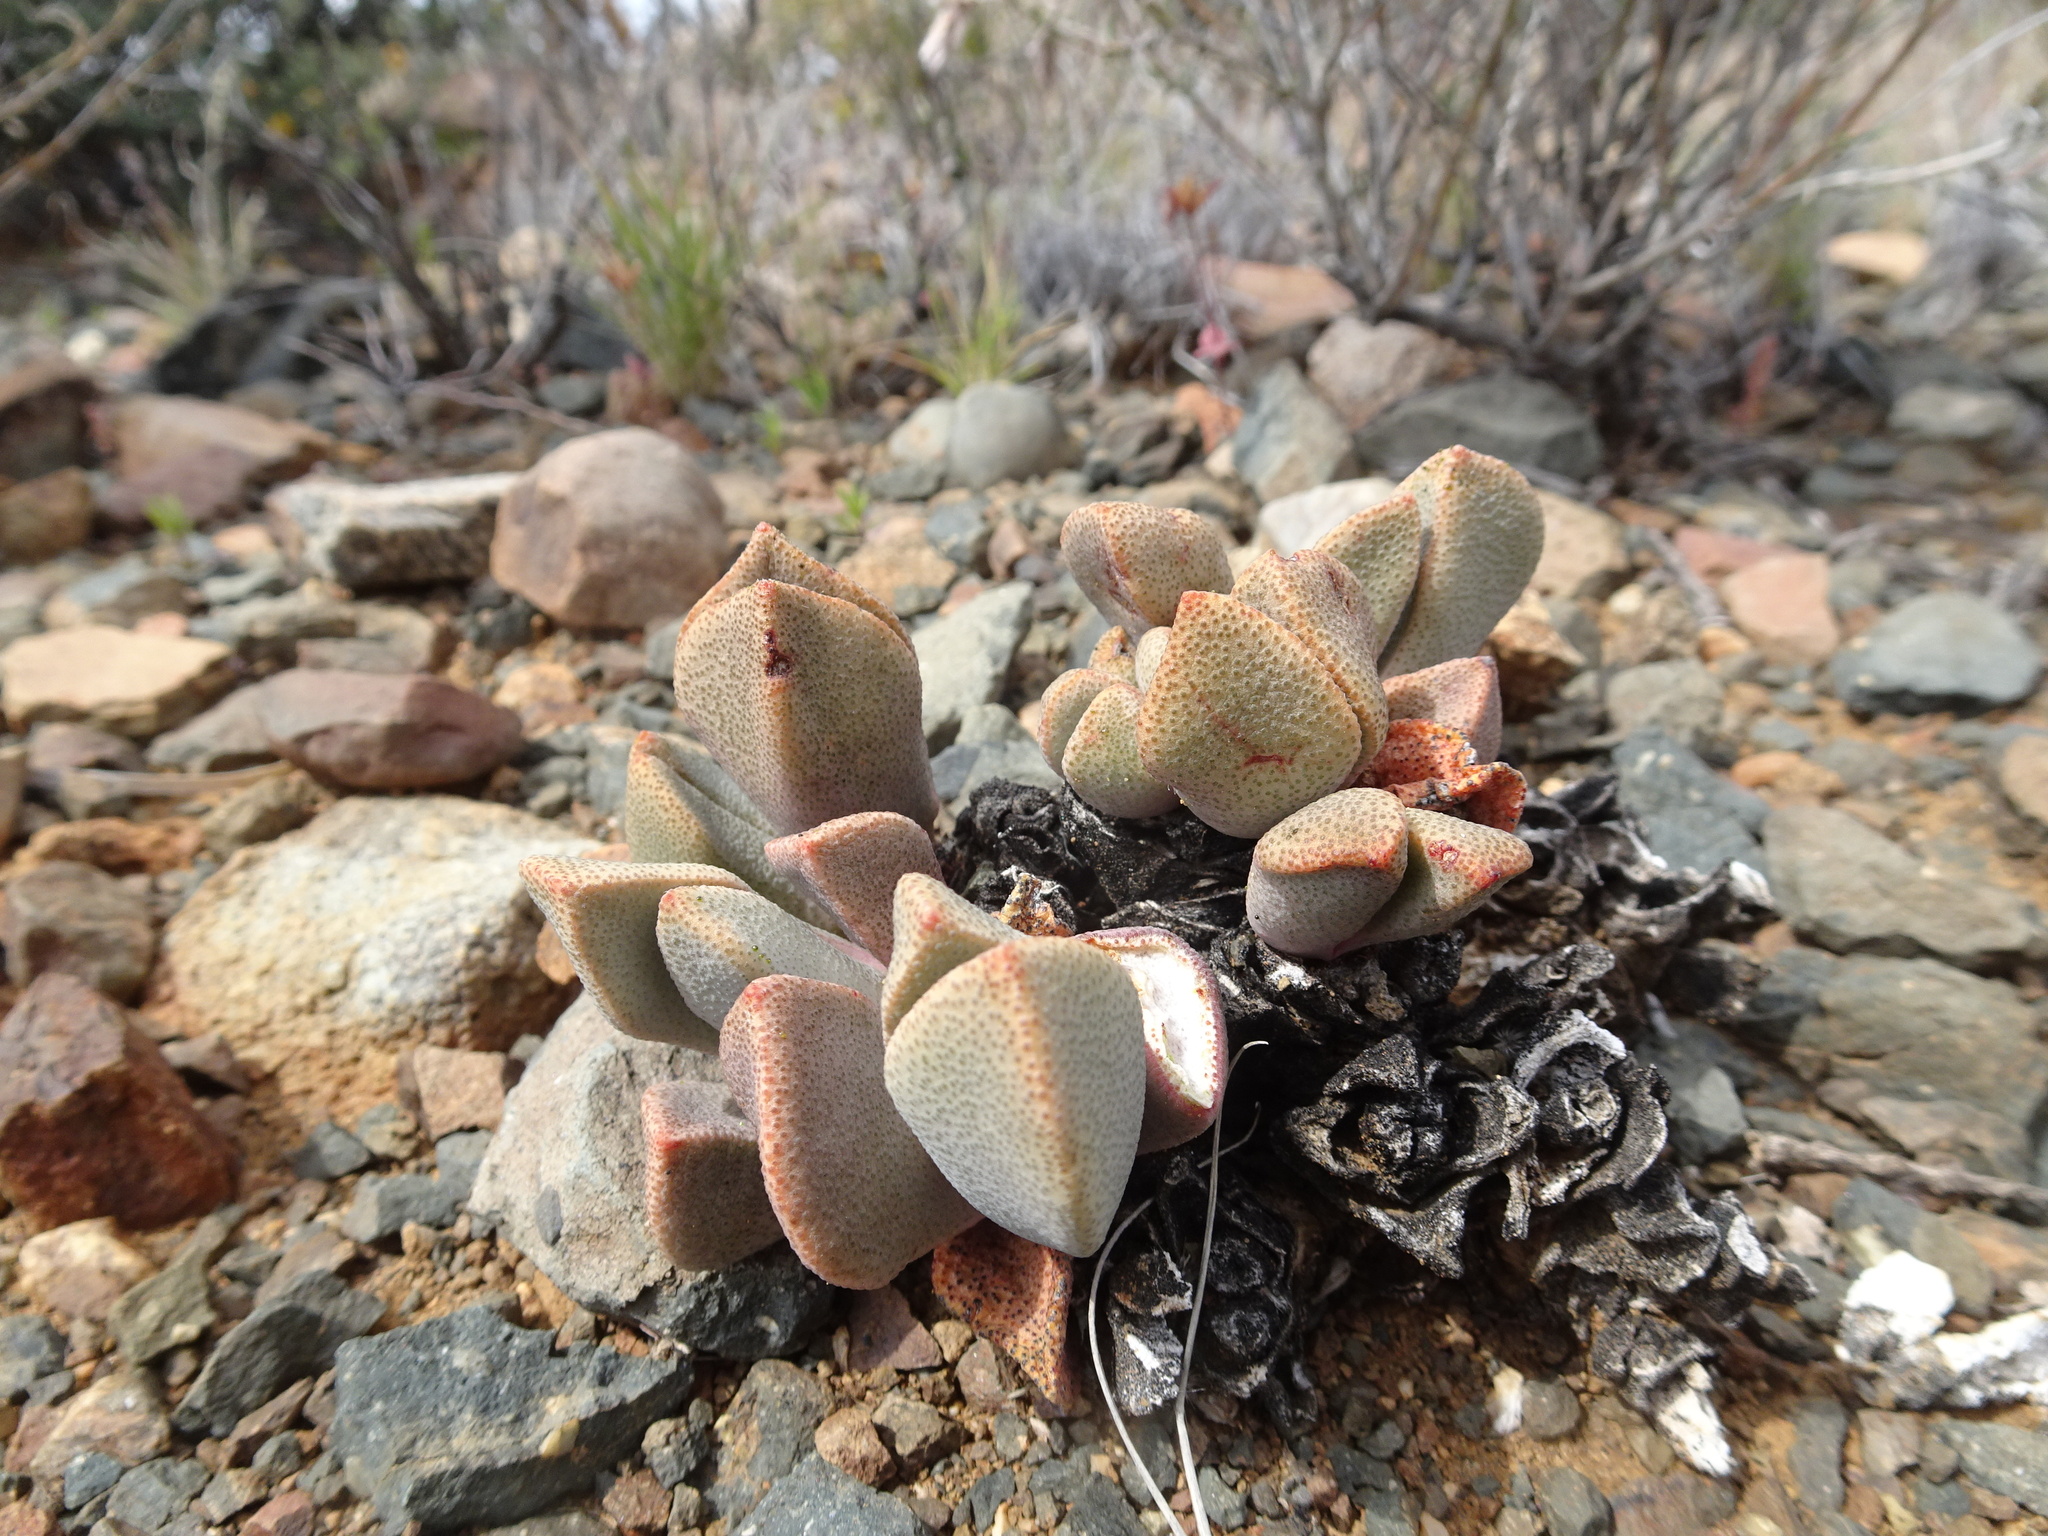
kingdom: Plantae
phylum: Tracheophyta
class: Magnoliopsida
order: Caryophyllales
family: Aizoaceae
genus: Pleiospilos
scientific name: Pleiospilos compactus
